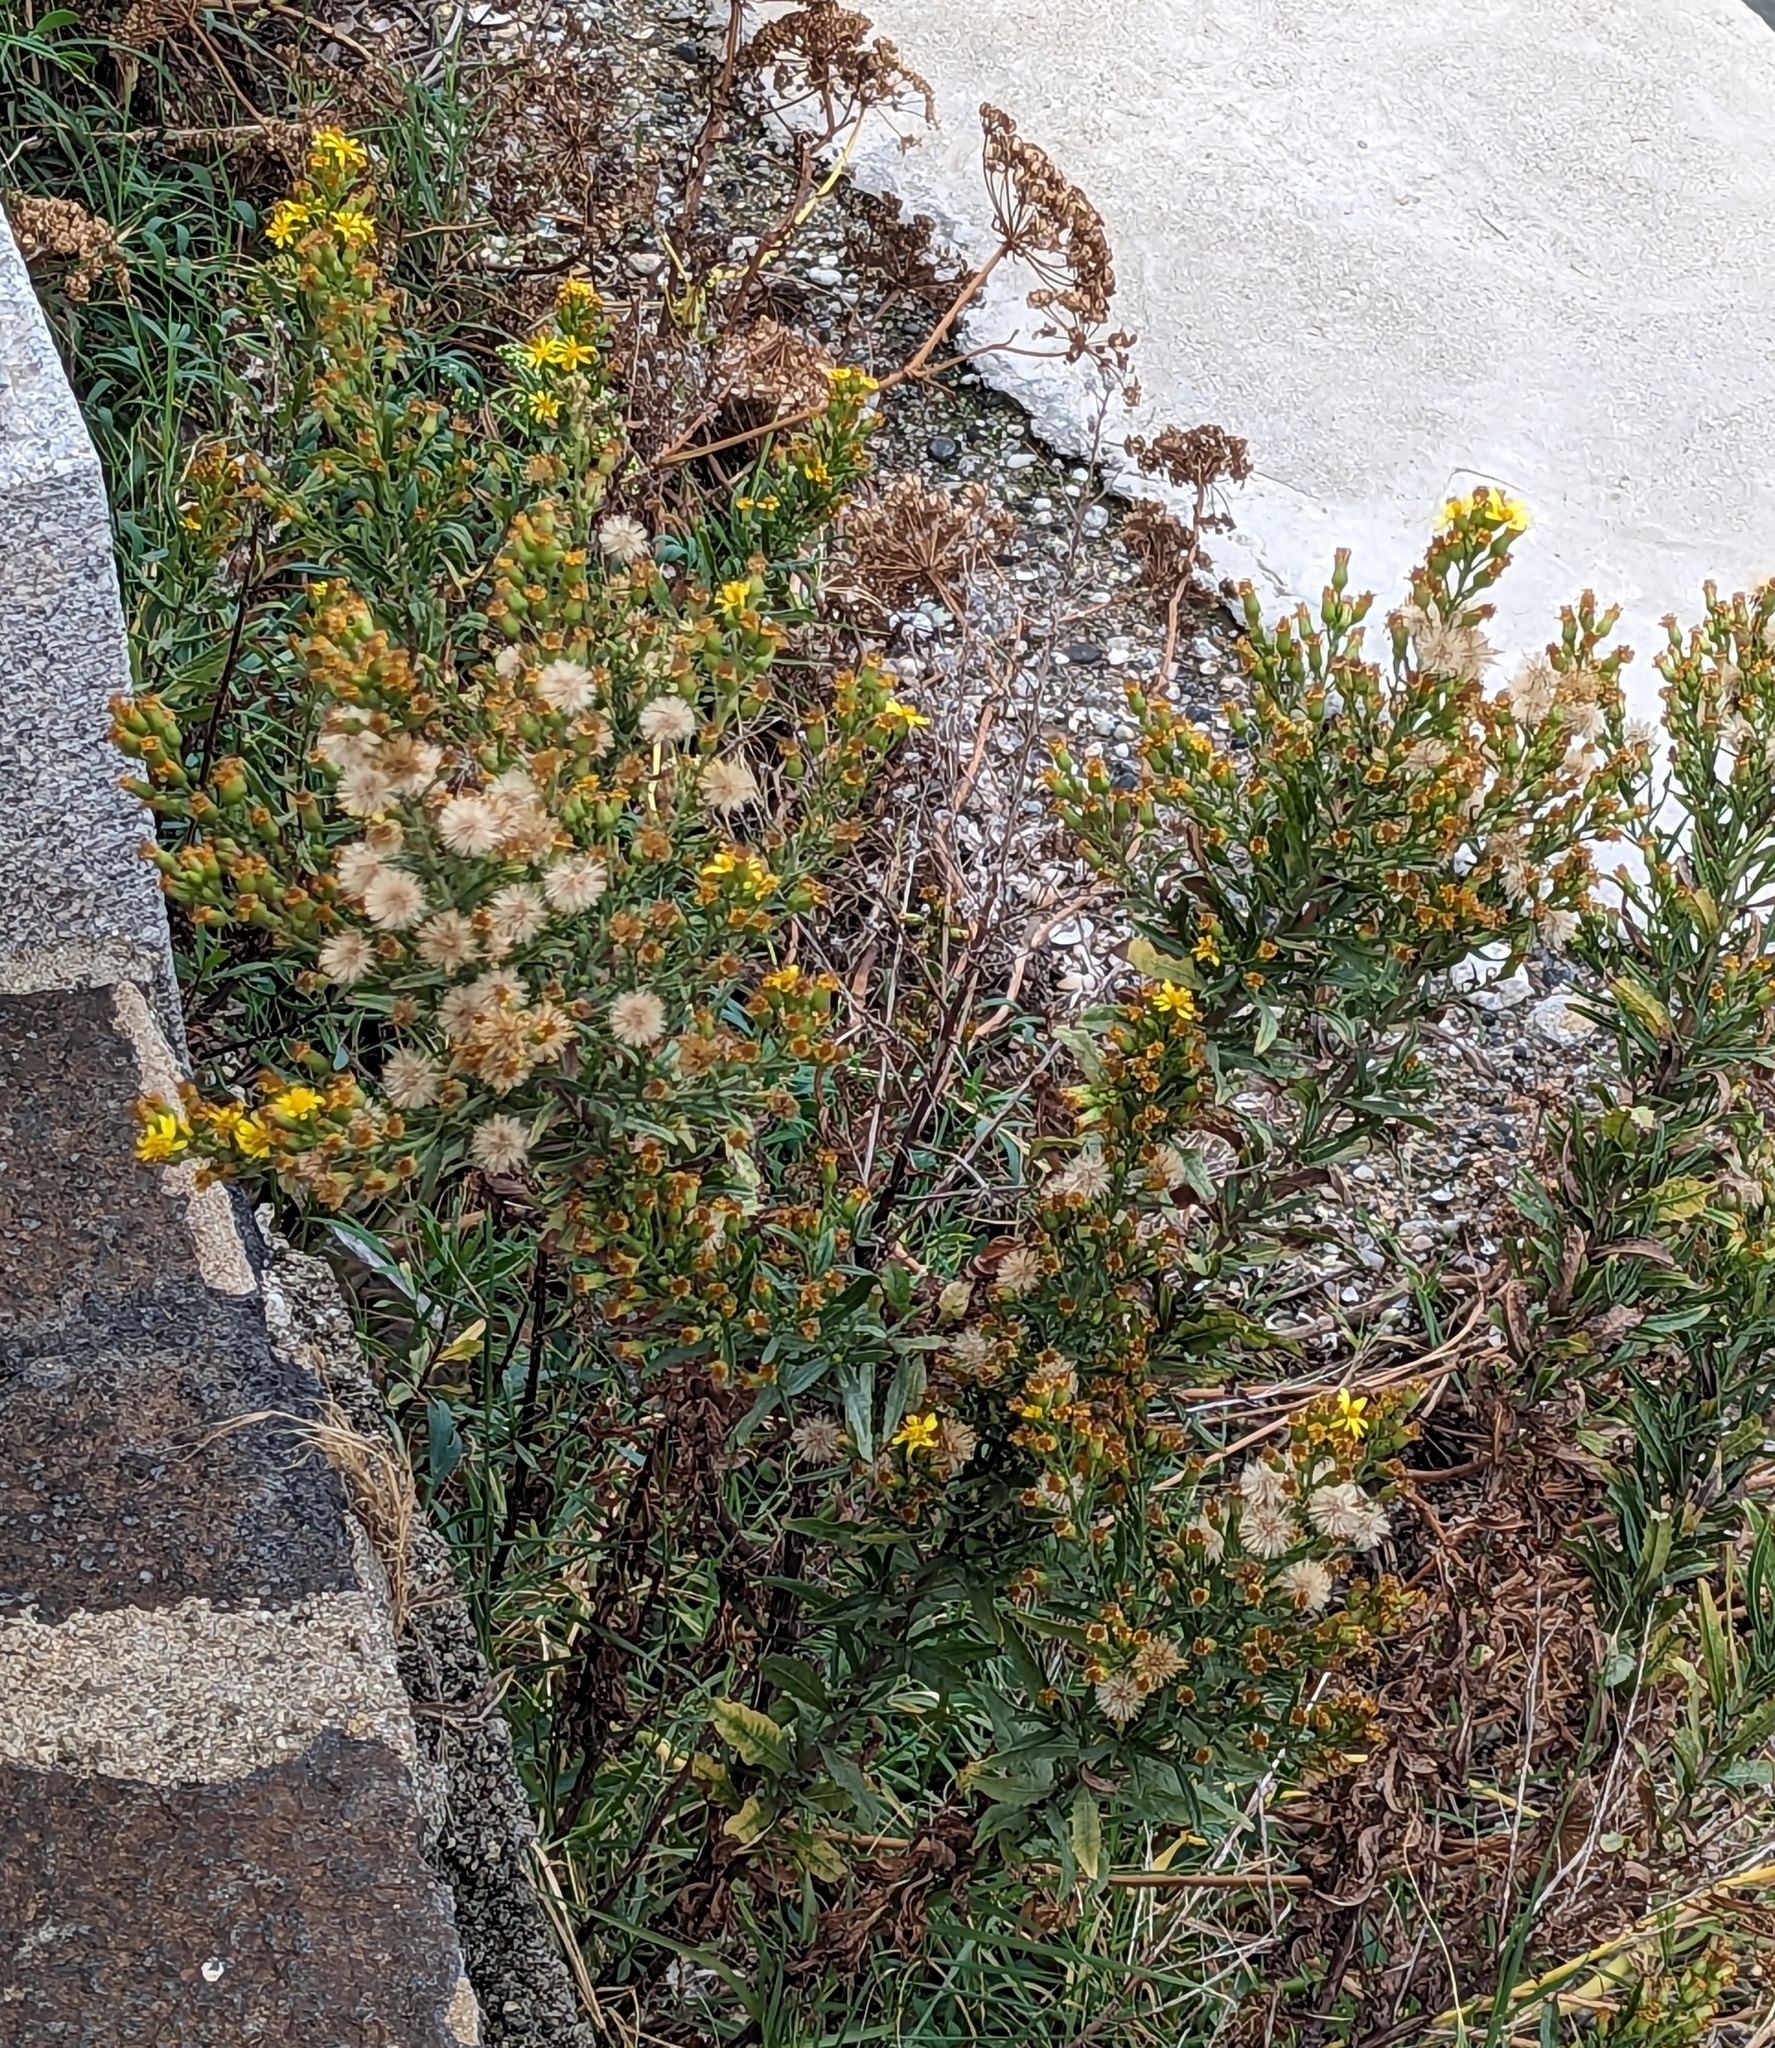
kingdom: Plantae
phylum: Tracheophyta
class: Magnoliopsida
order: Asterales
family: Asteraceae
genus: Dittrichia
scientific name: Dittrichia viscosa
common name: Woody fleabane
